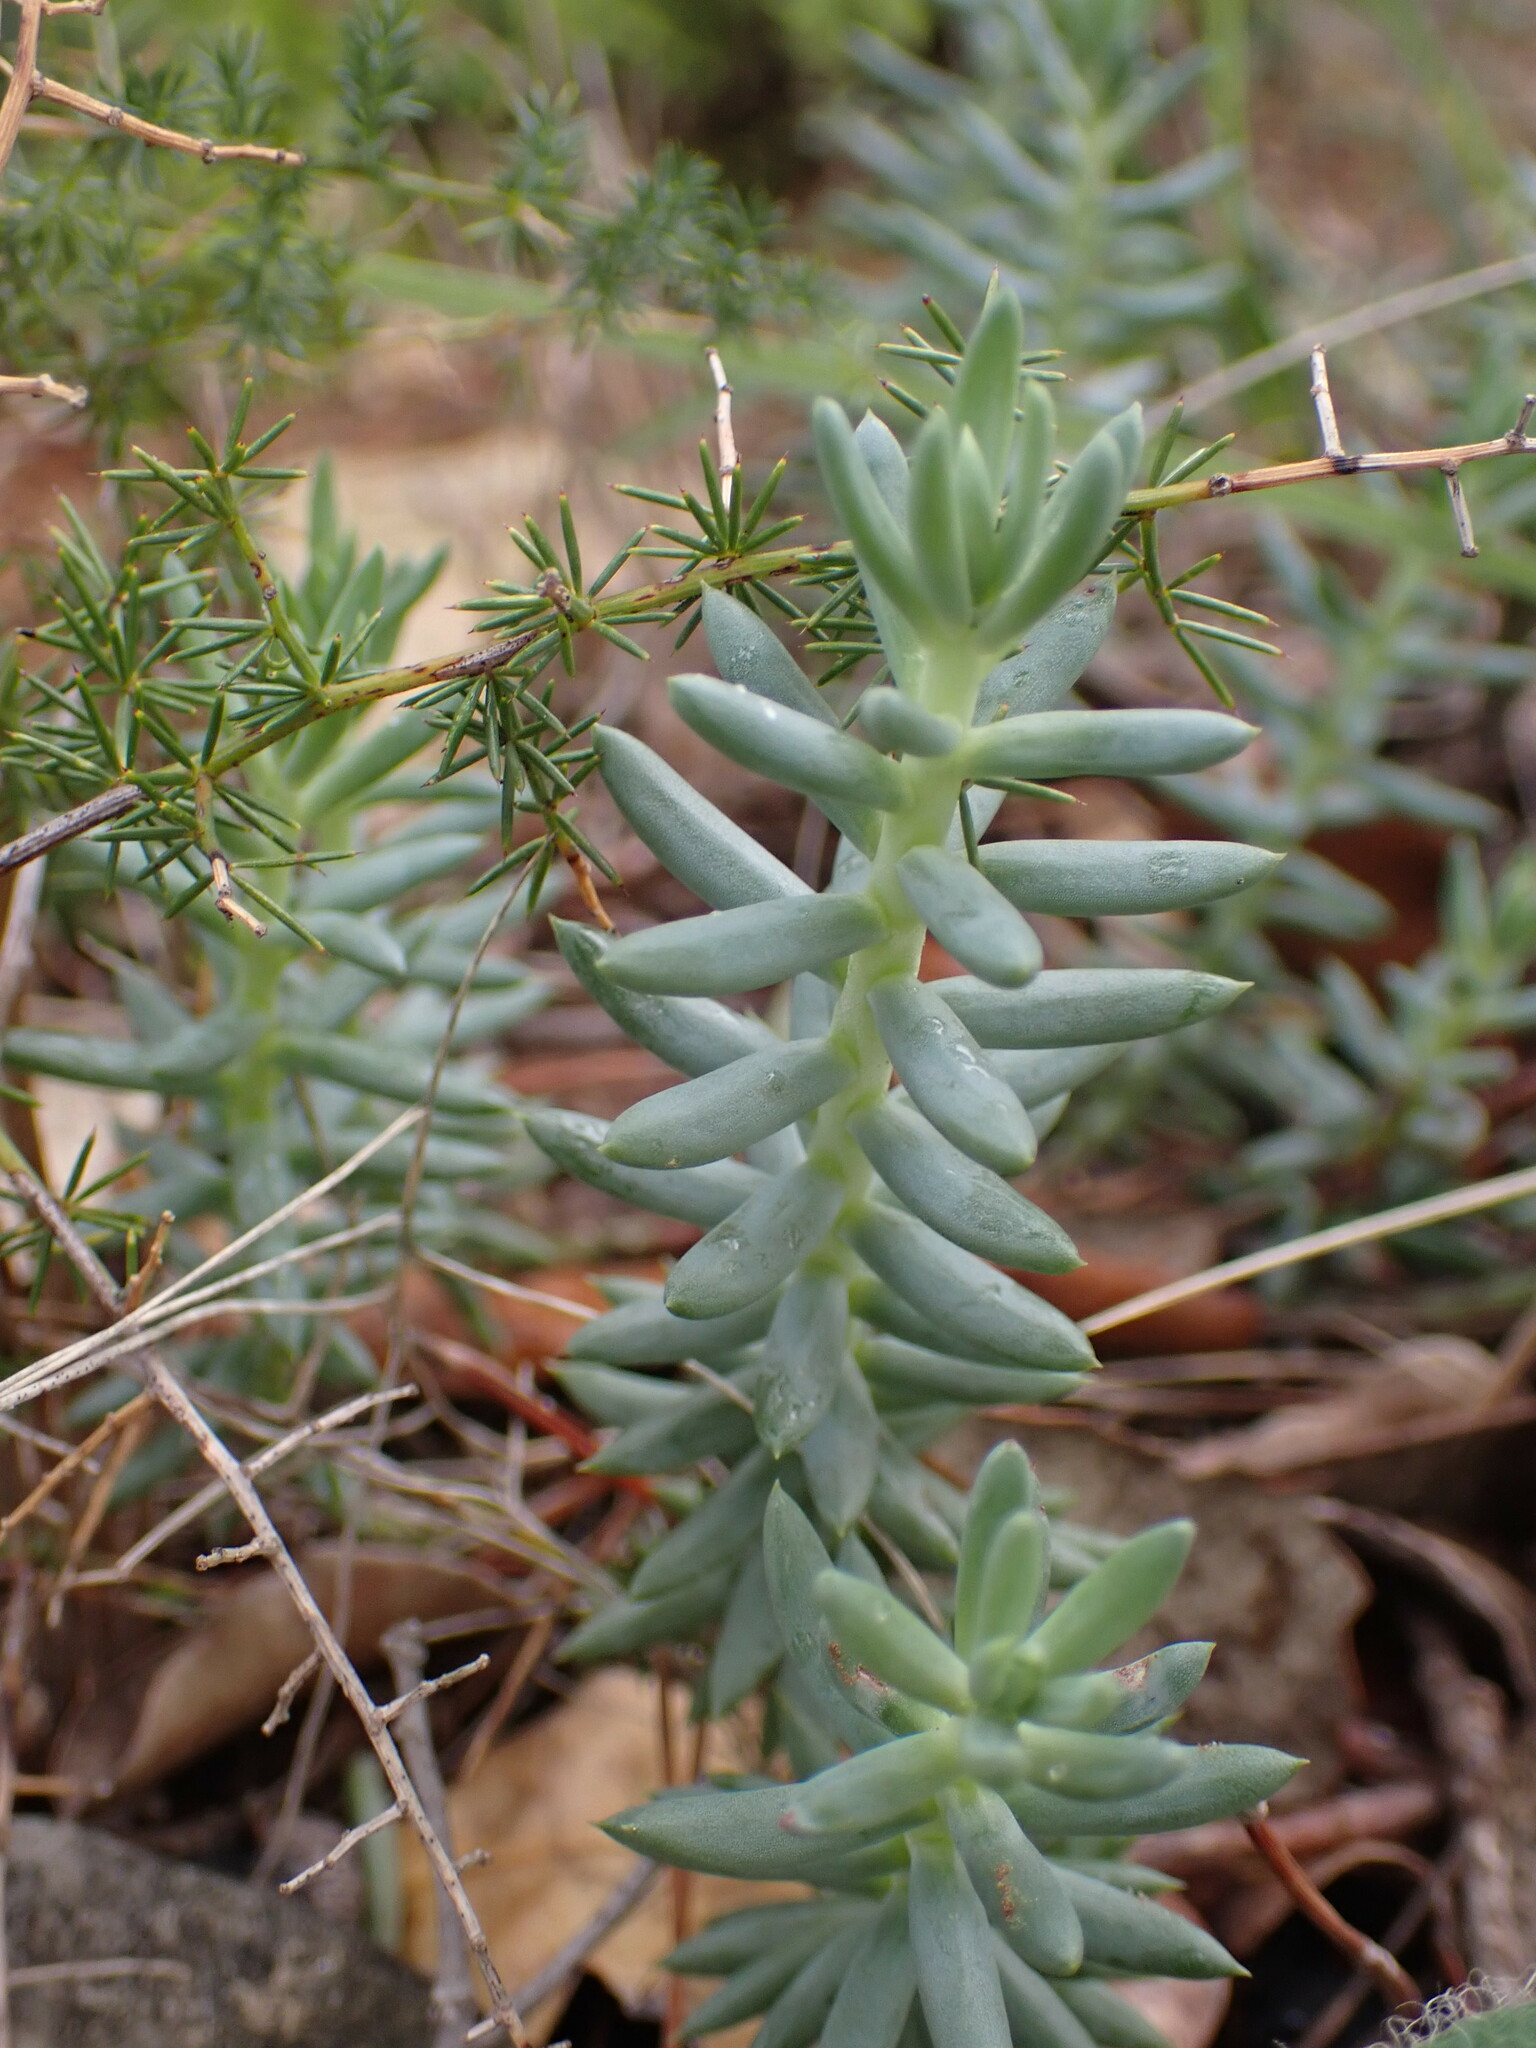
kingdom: Plantae
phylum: Tracheophyta
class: Magnoliopsida
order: Saxifragales
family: Crassulaceae
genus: Petrosedum
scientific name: Petrosedum sediforme
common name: Pale stonecrop
